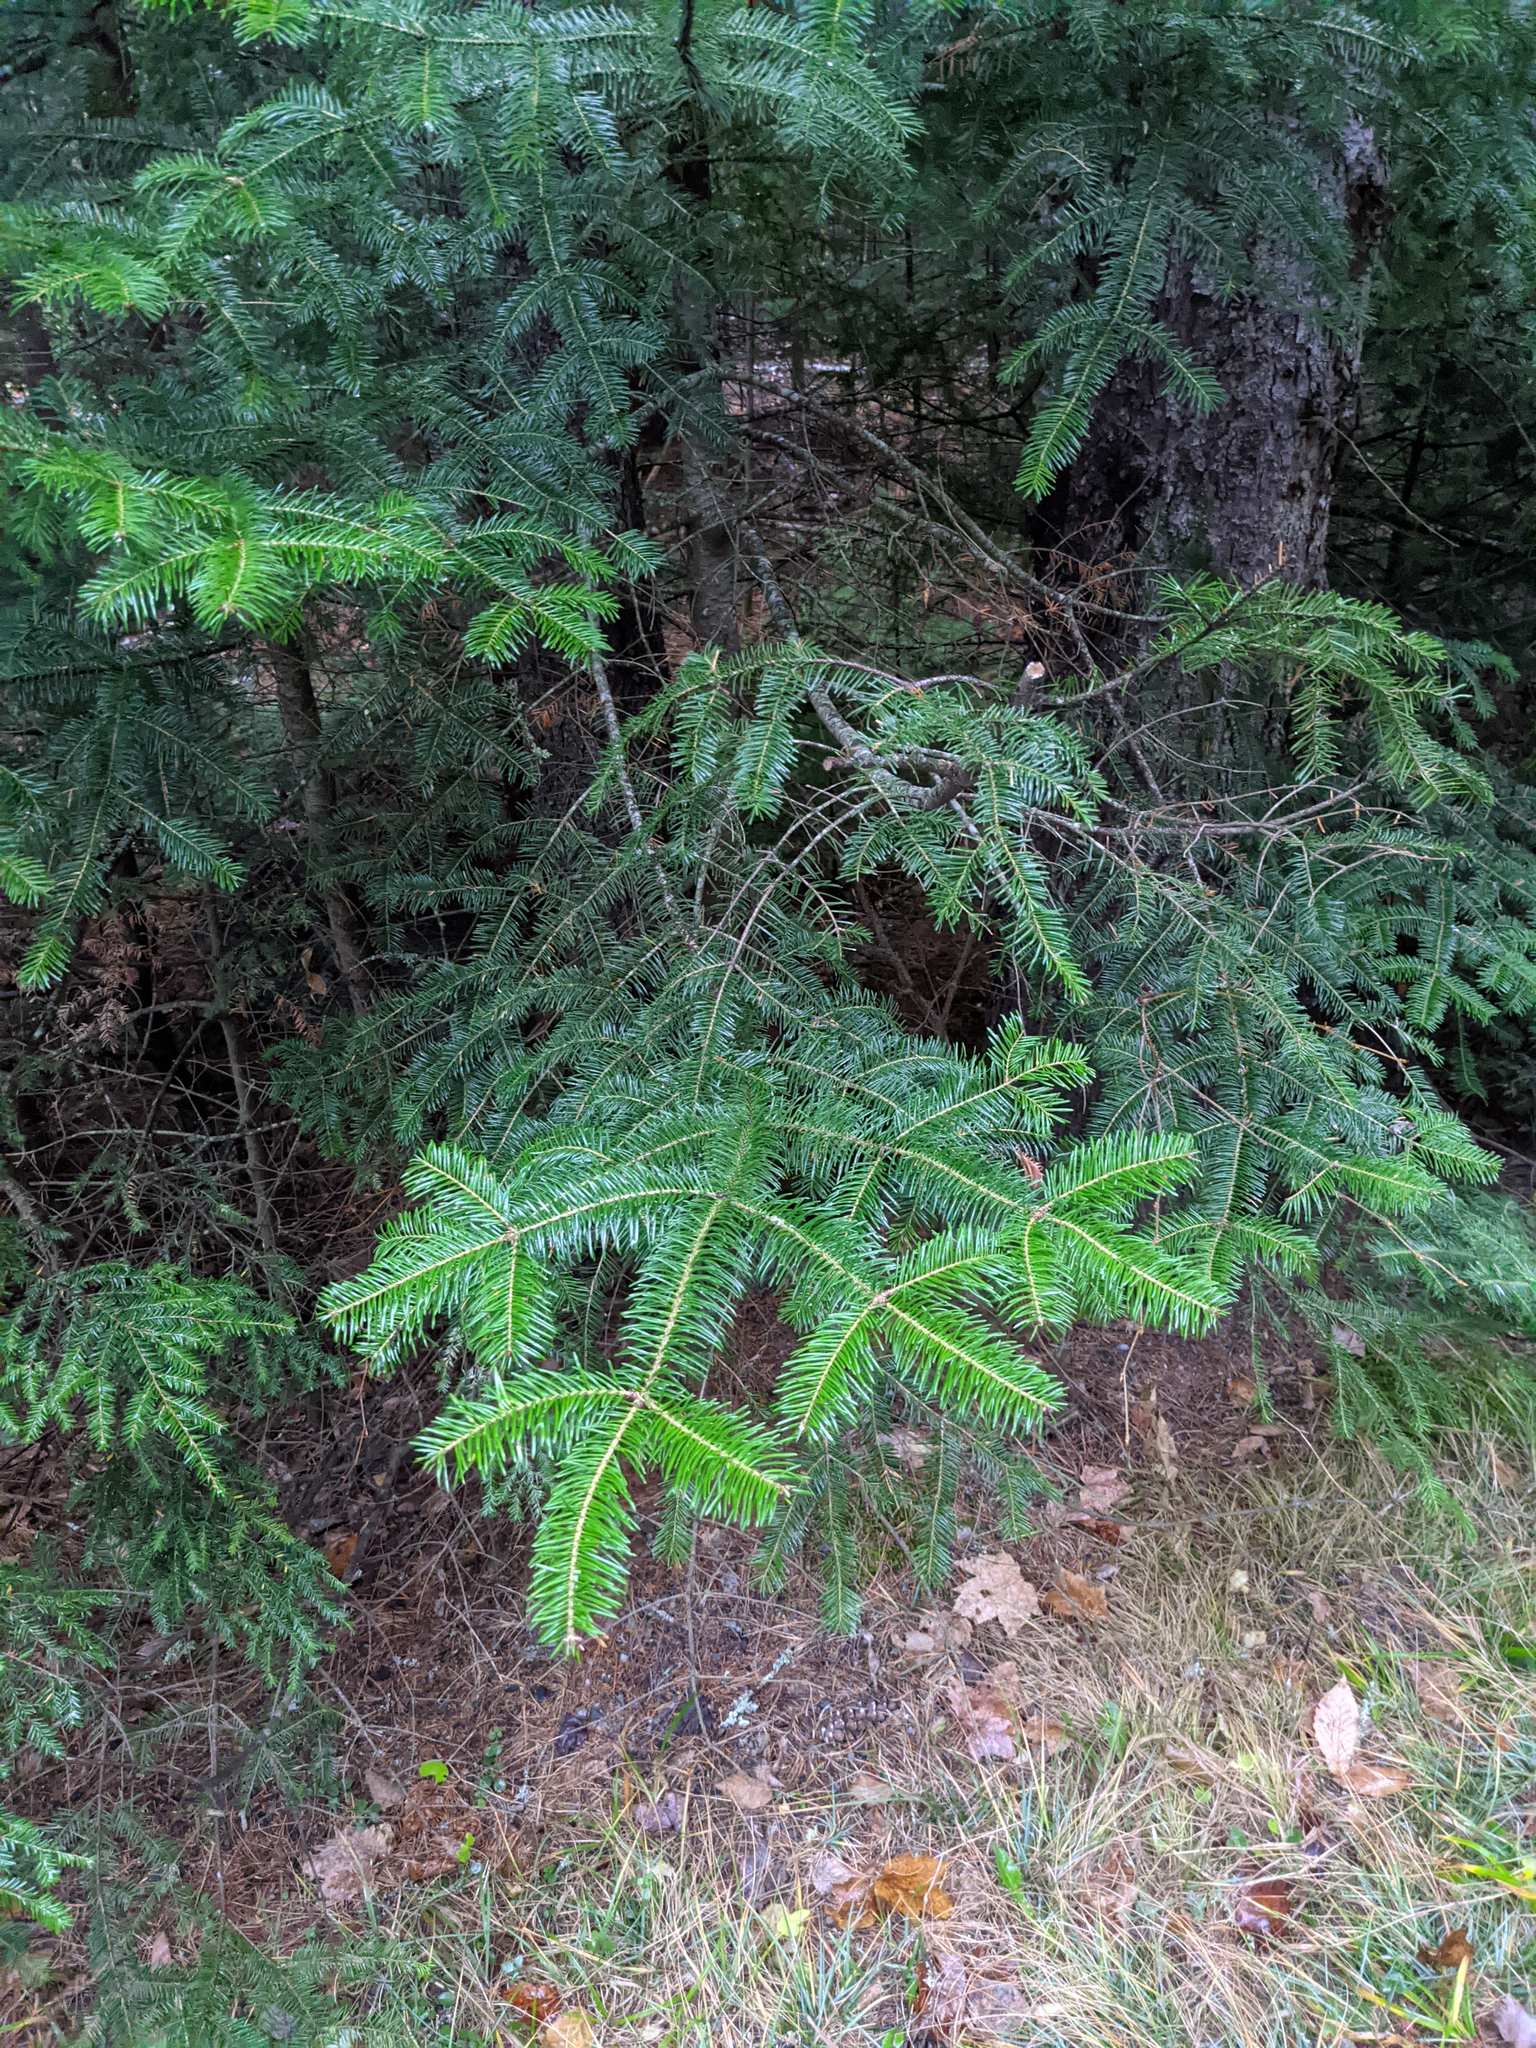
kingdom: Plantae
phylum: Tracheophyta
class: Pinopsida
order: Pinales
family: Pinaceae
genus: Abies
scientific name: Abies balsamea
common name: Balsam fir
